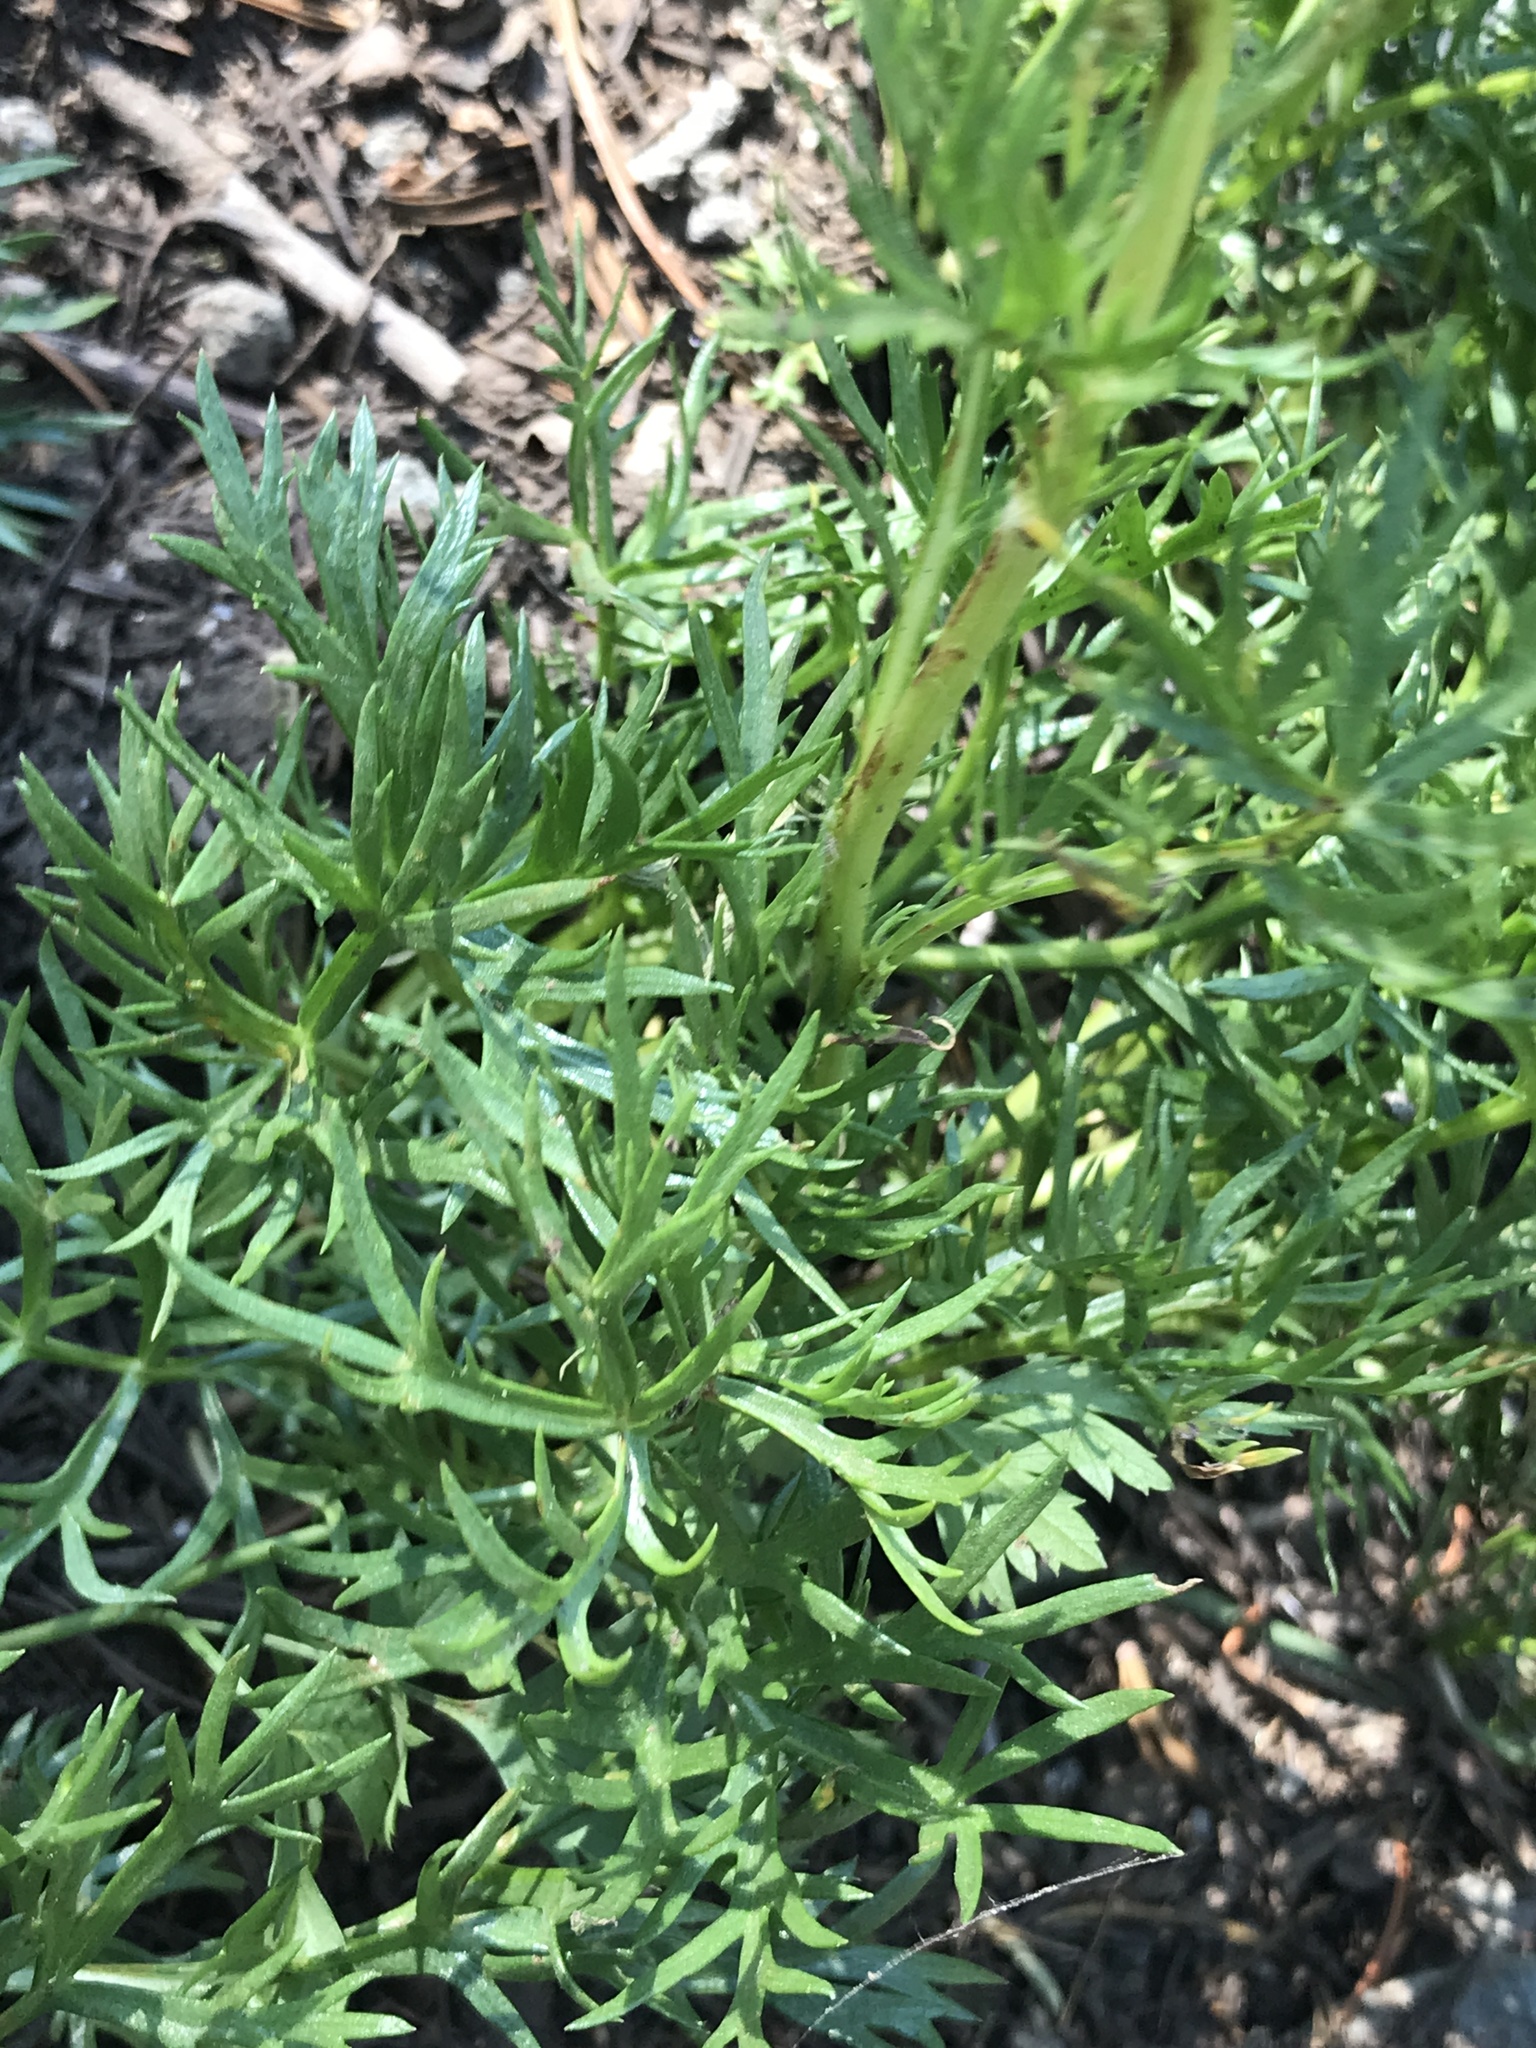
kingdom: Plantae
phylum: Tracheophyta
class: Magnoliopsida
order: Asterales
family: Asteraceae
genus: Artemisia
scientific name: Artemisia norvegica
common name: Norwegian mugwort
